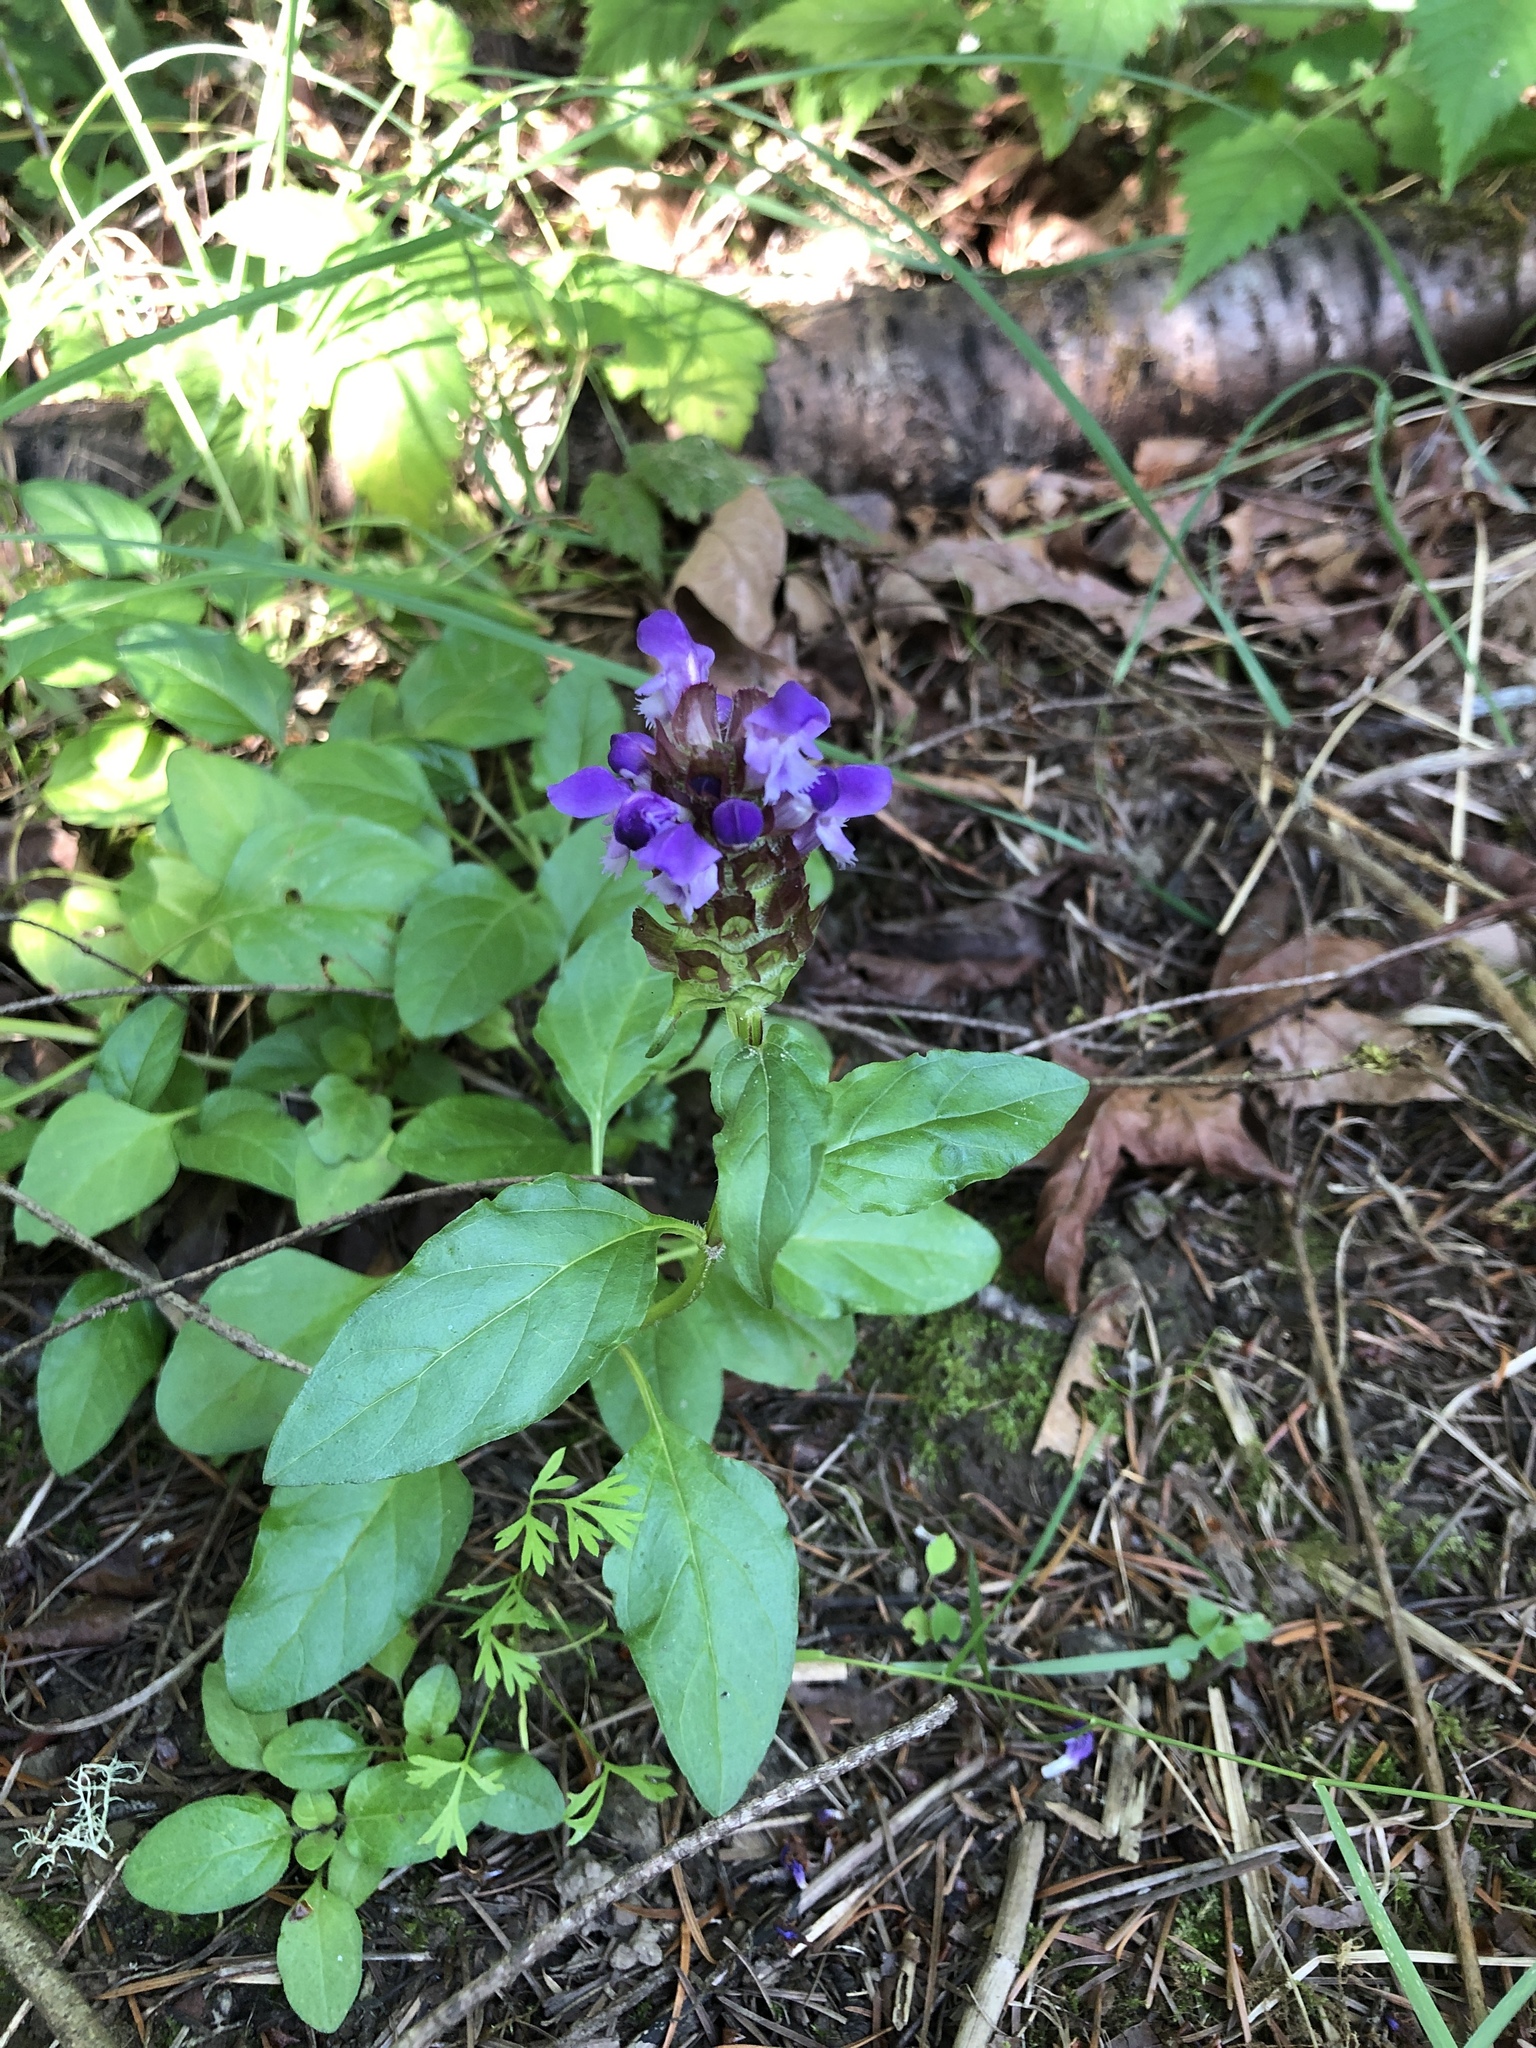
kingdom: Plantae
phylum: Tracheophyta
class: Magnoliopsida
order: Lamiales
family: Lamiaceae
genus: Prunella
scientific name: Prunella vulgaris
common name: Heal-all
